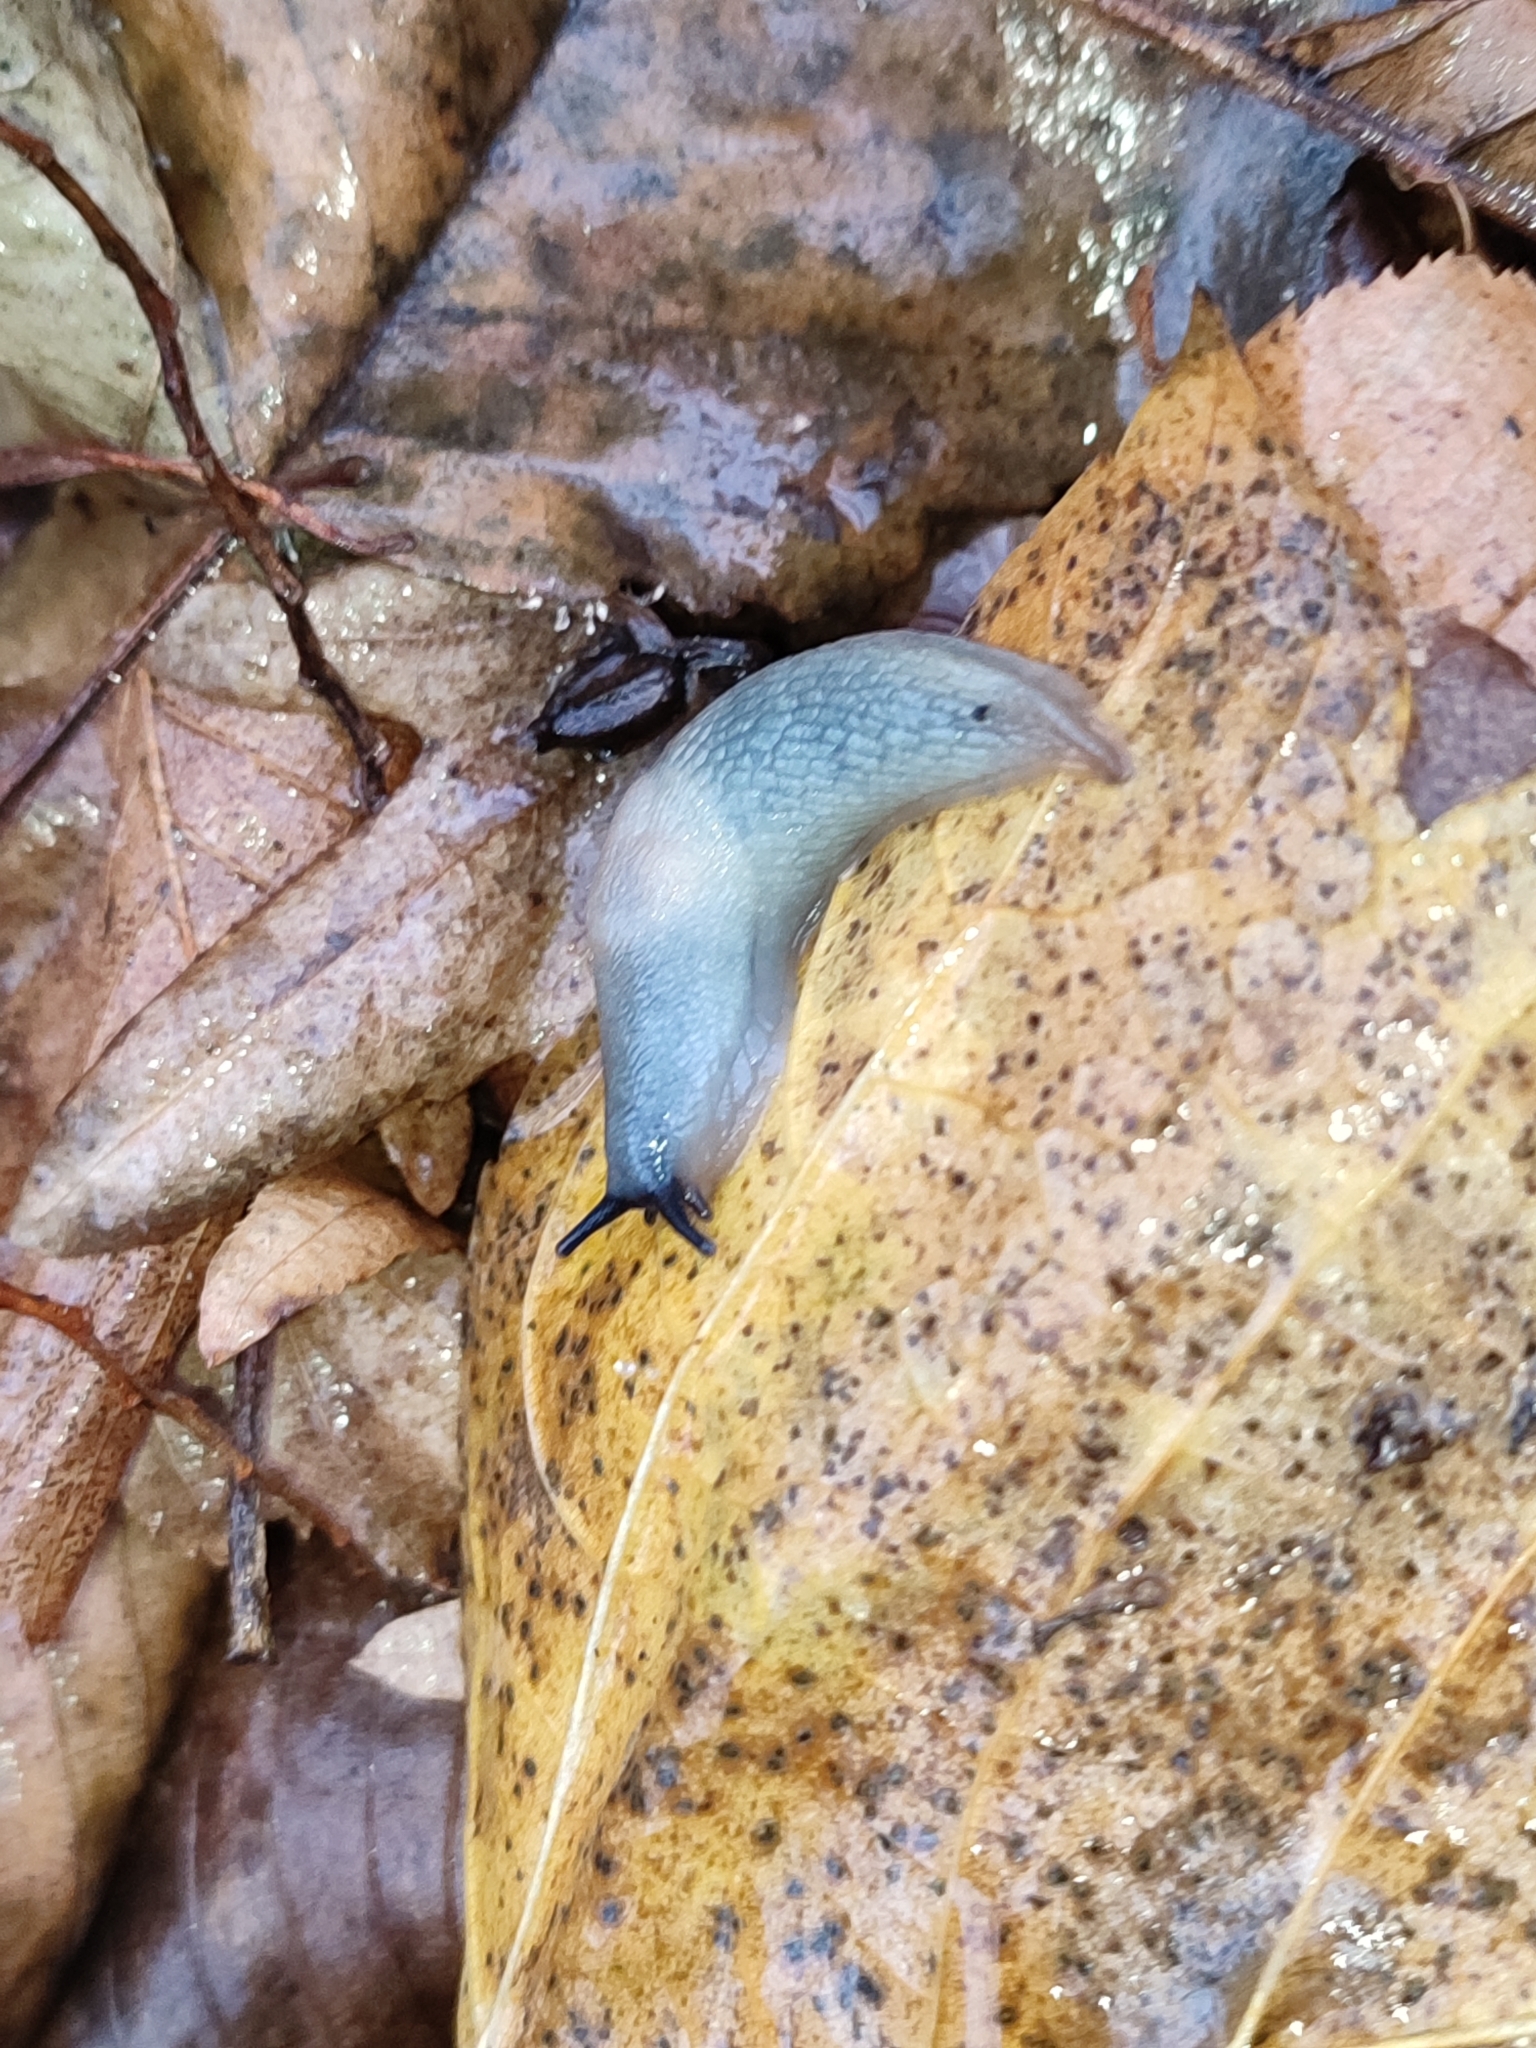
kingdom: Animalia
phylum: Mollusca
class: Gastropoda
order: Stylommatophora
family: Agriolimacidae
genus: Krynickillus
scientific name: Krynickillus melanocephalus
